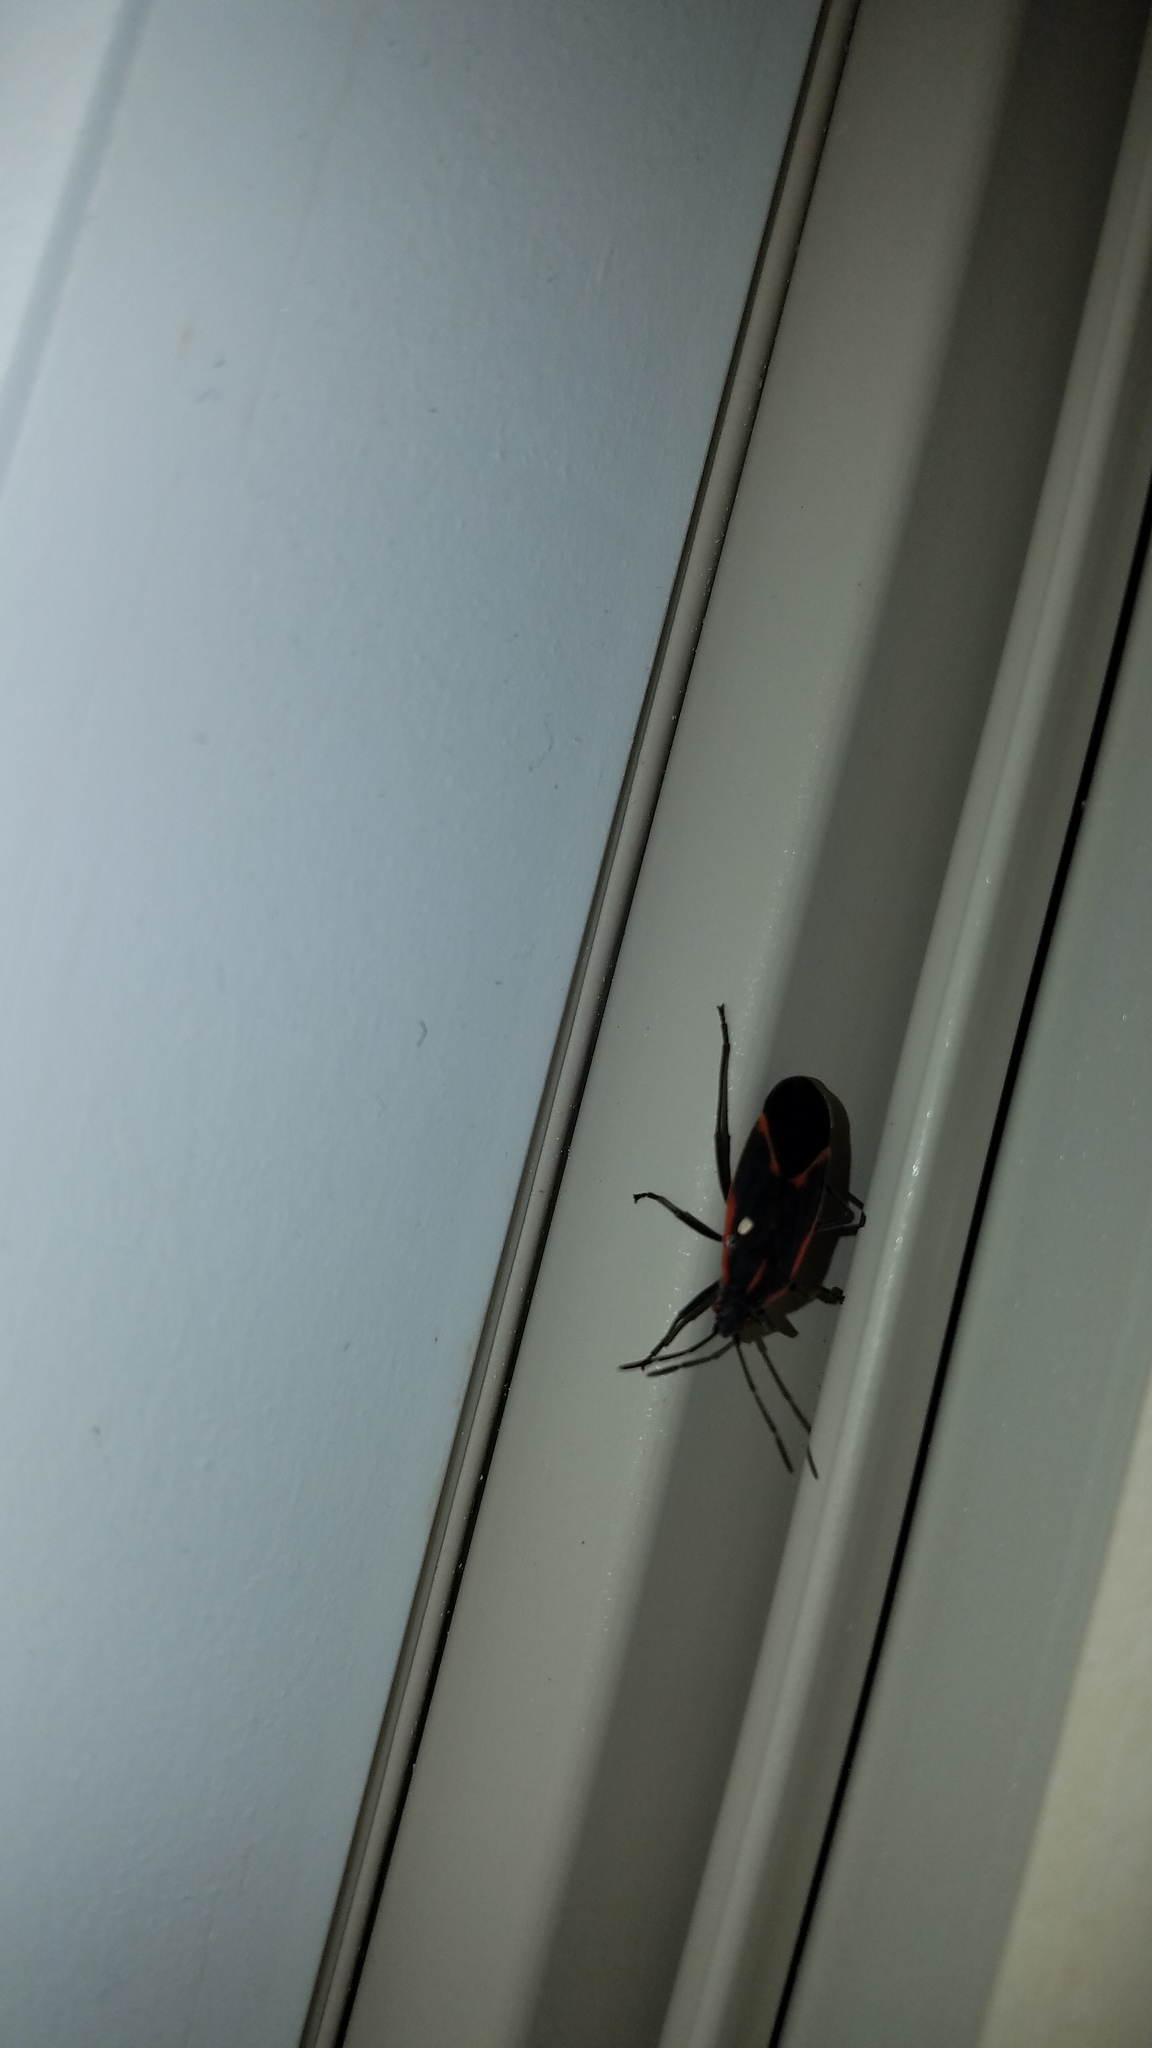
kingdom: Animalia
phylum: Arthropoda
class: Insecta
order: Hemiptera
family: Rhopalidae
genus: Boisea
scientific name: Boisea trivittata
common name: Boxelder bug
